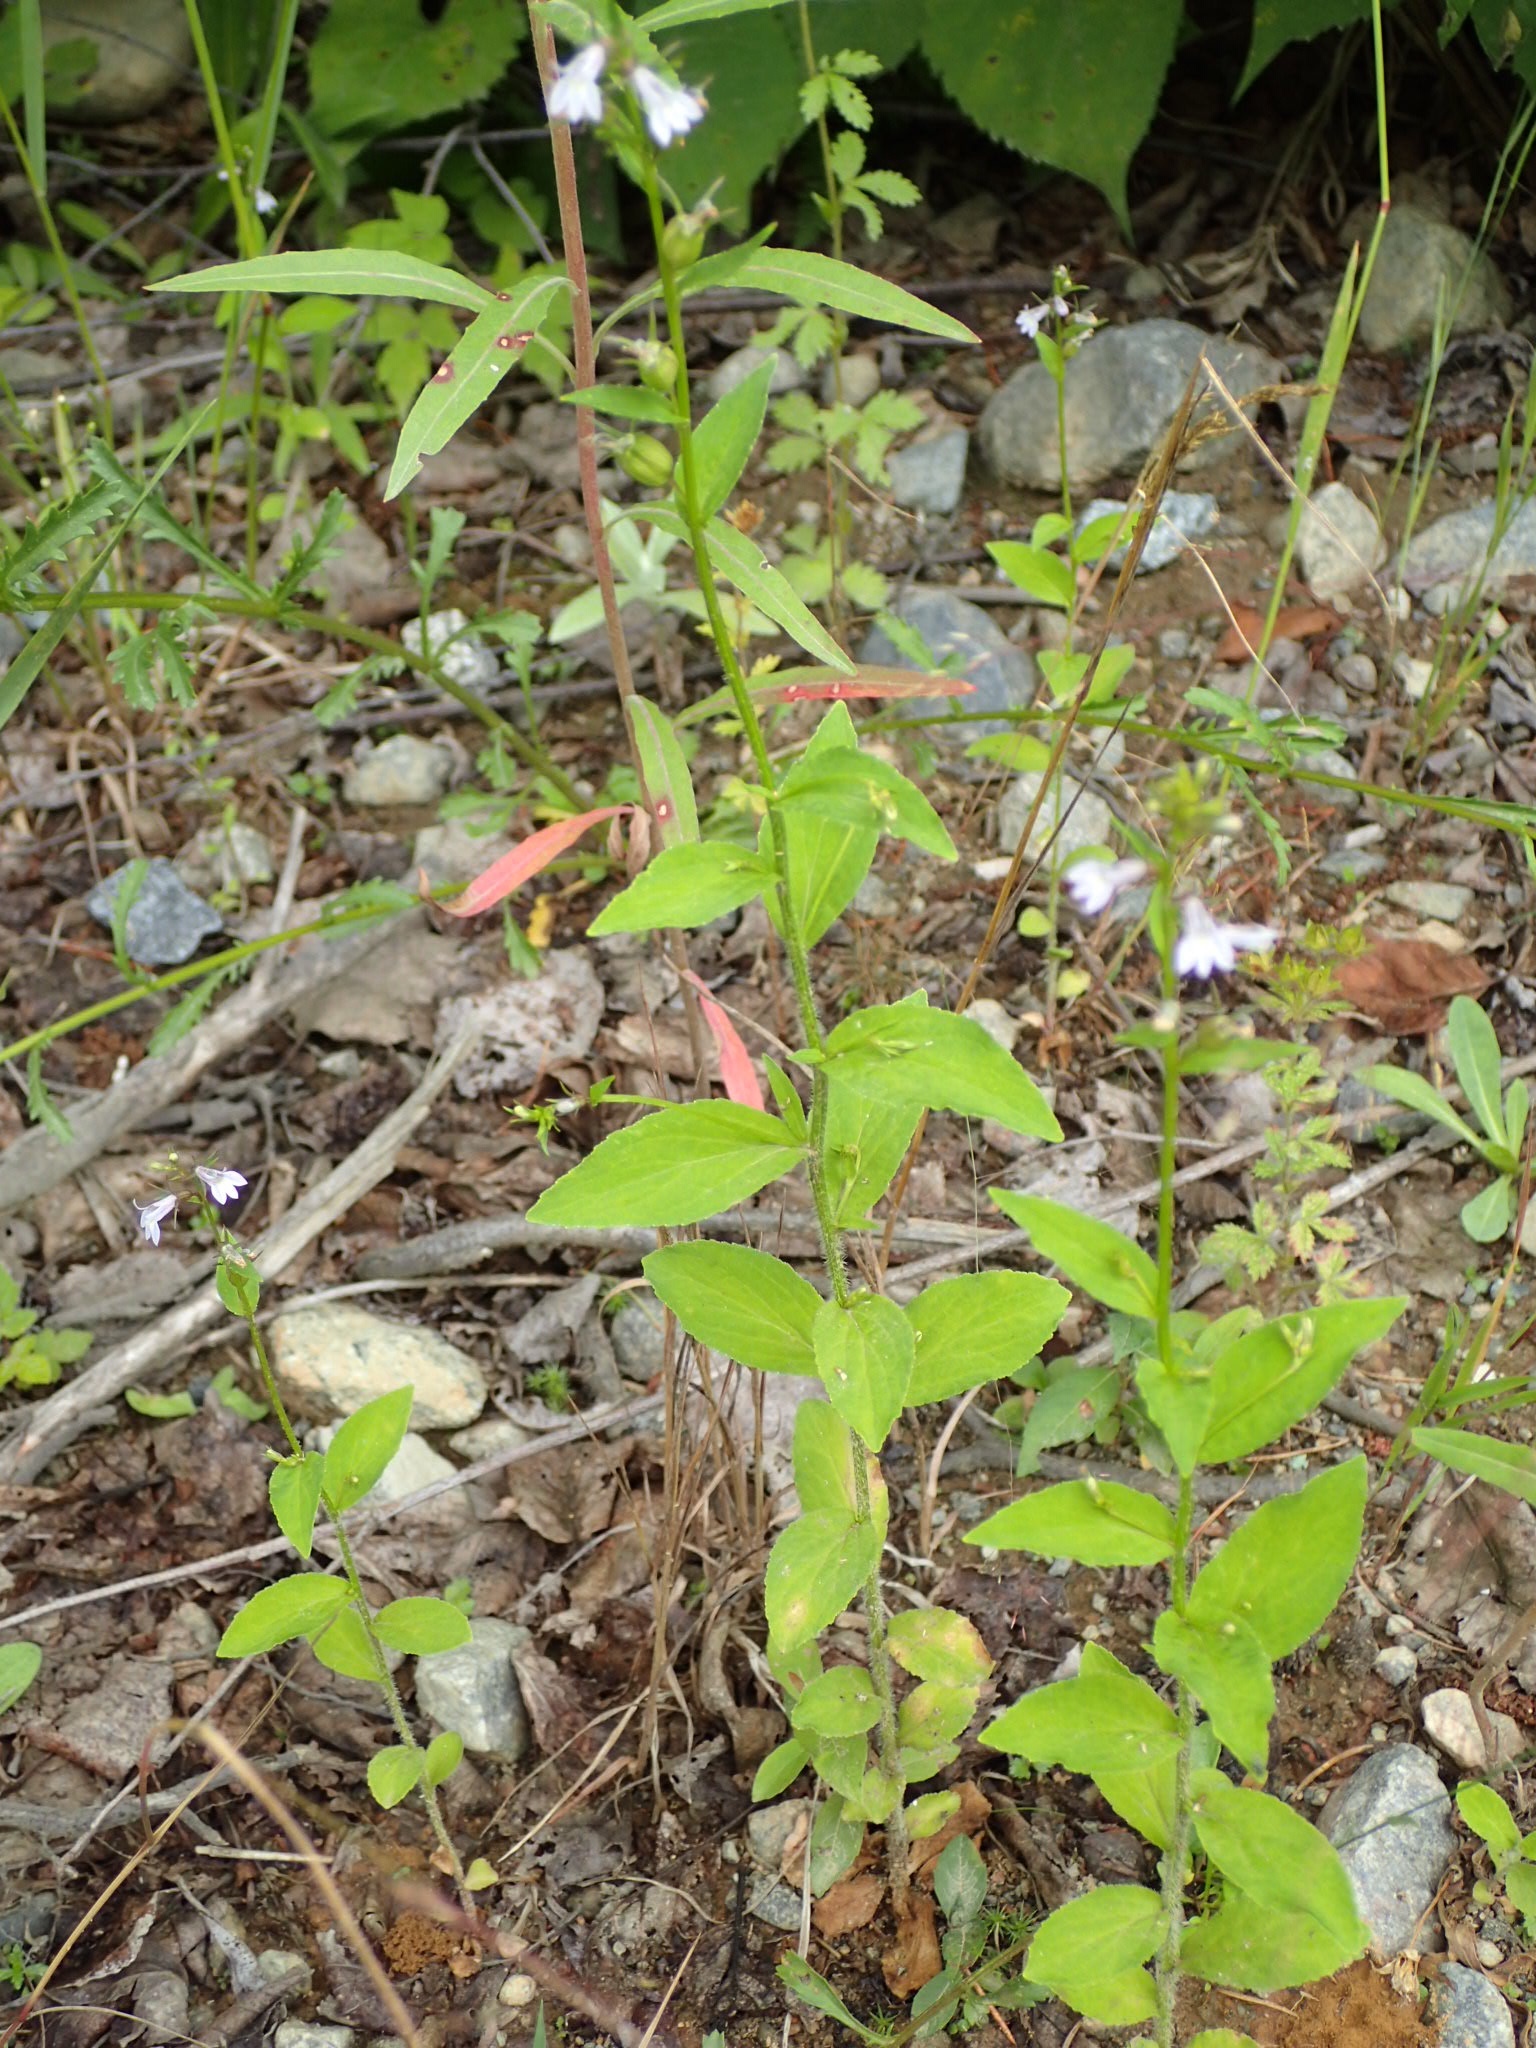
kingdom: Plantae
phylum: Tracheophyta
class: Magnoliopsida
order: Asterales
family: Campanulaceae
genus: Lobelia
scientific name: Lobelia inflata
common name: Indian tobacco
